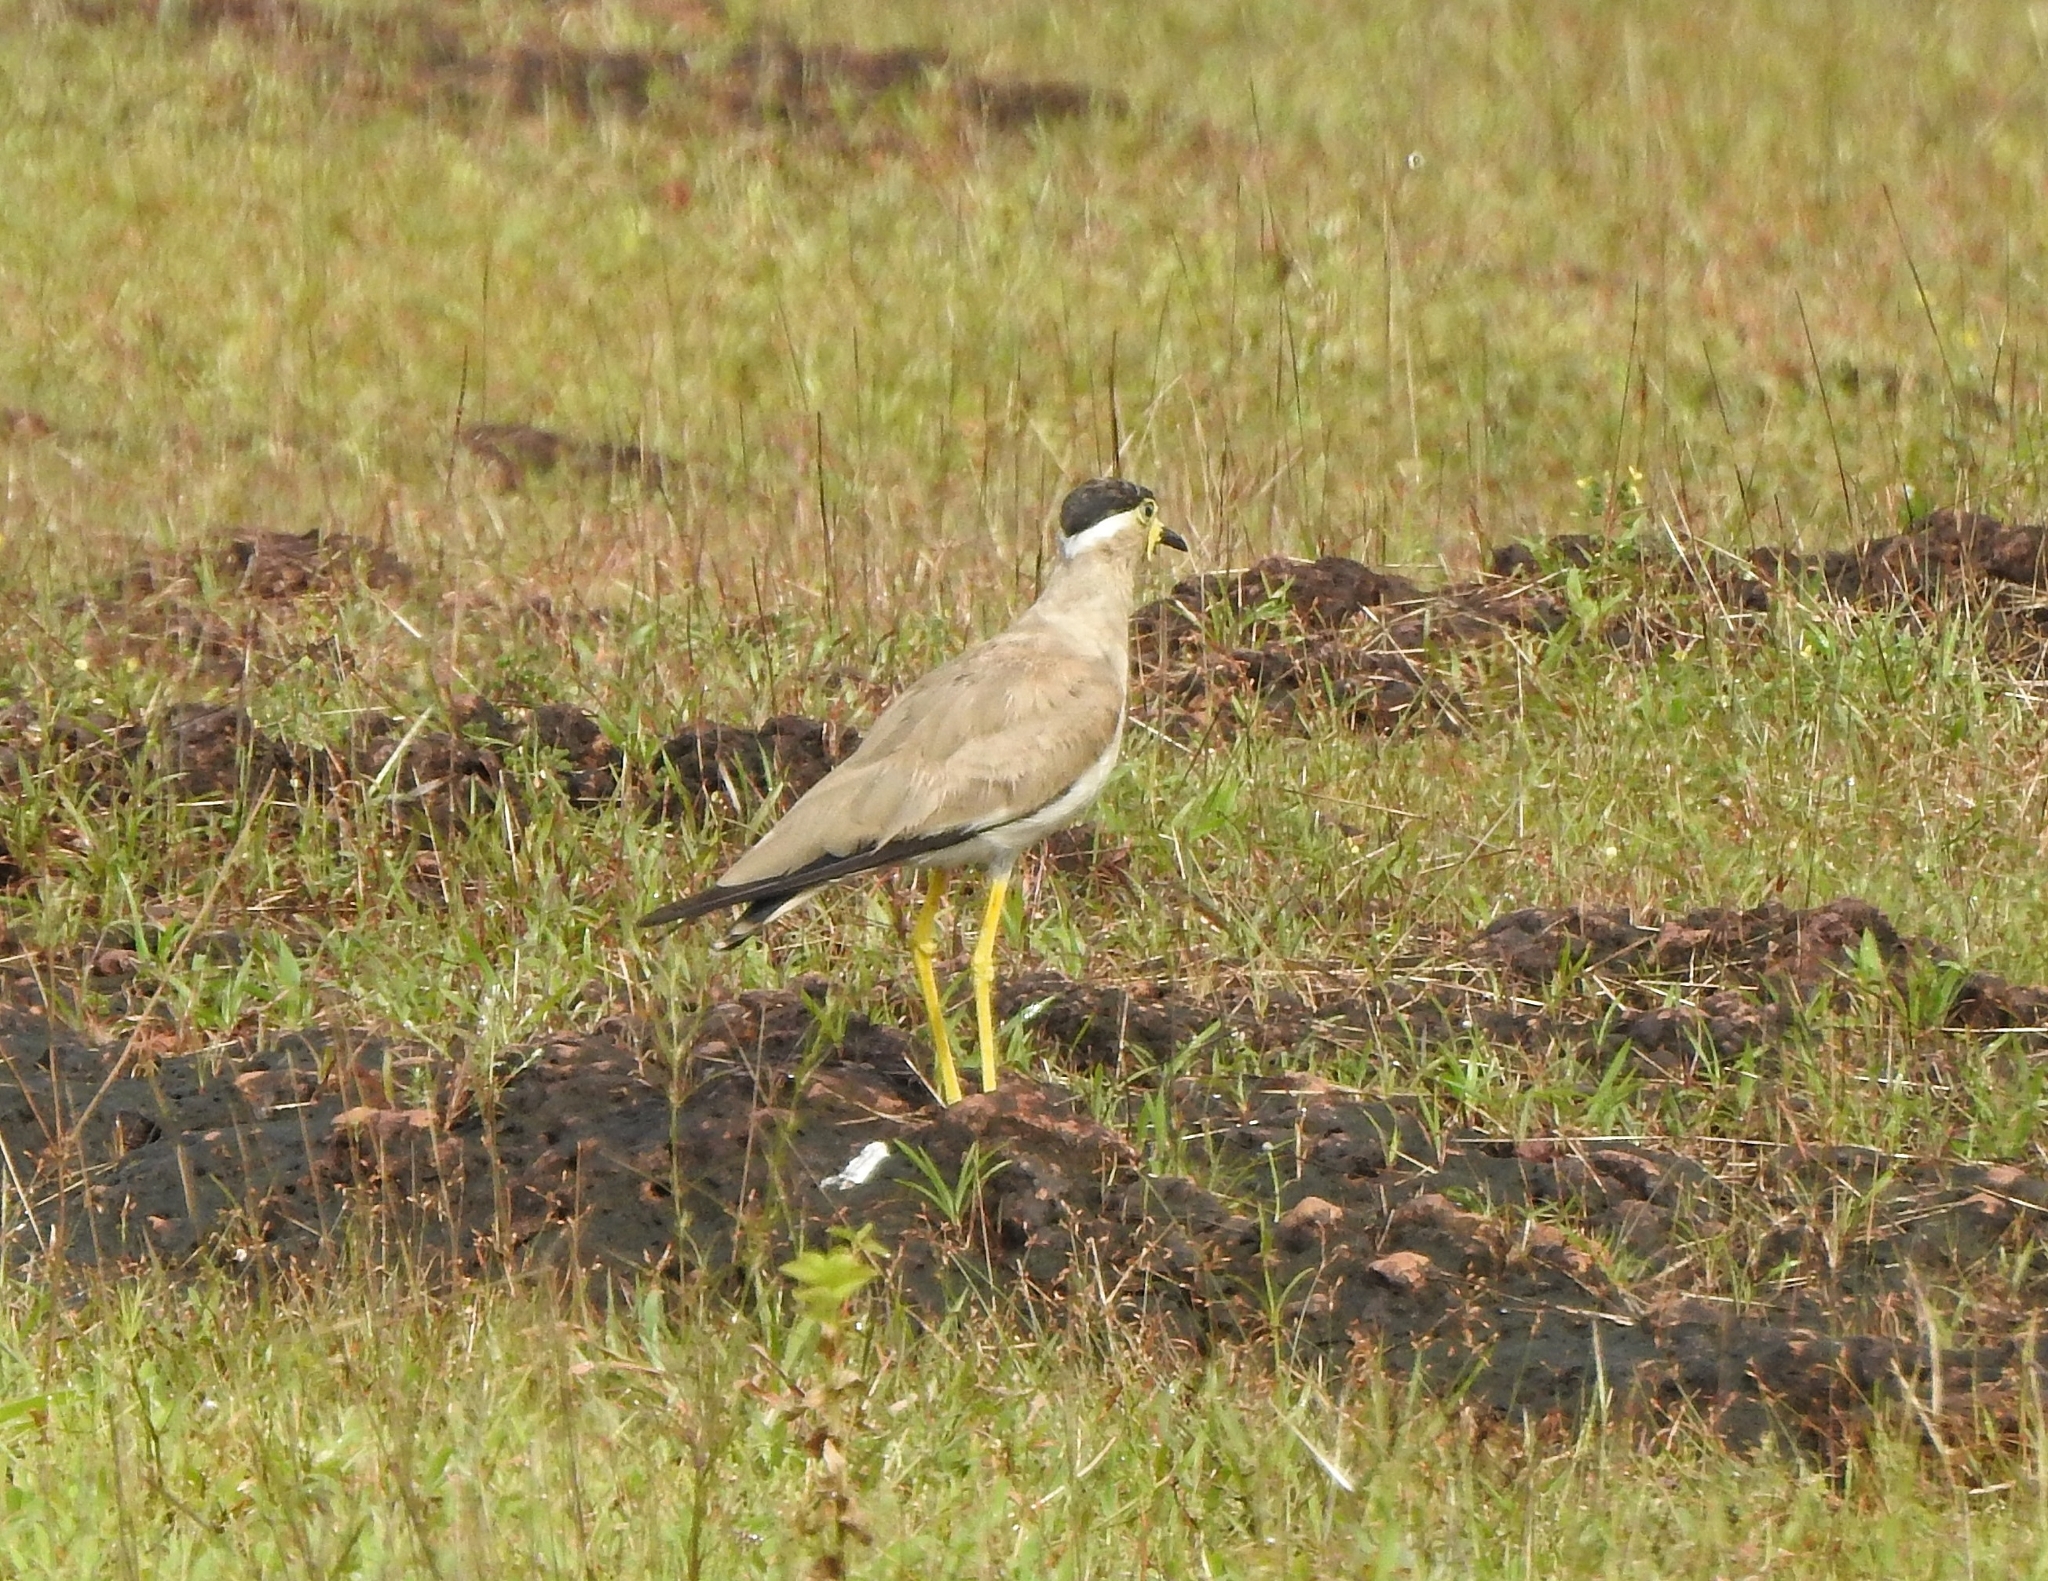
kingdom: Animalia
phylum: Chordata
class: Aves
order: Charadriiformes
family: Charadriidae
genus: Vanellus
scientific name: Vanellus malabaricus
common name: Yellow-wattled lapwing
